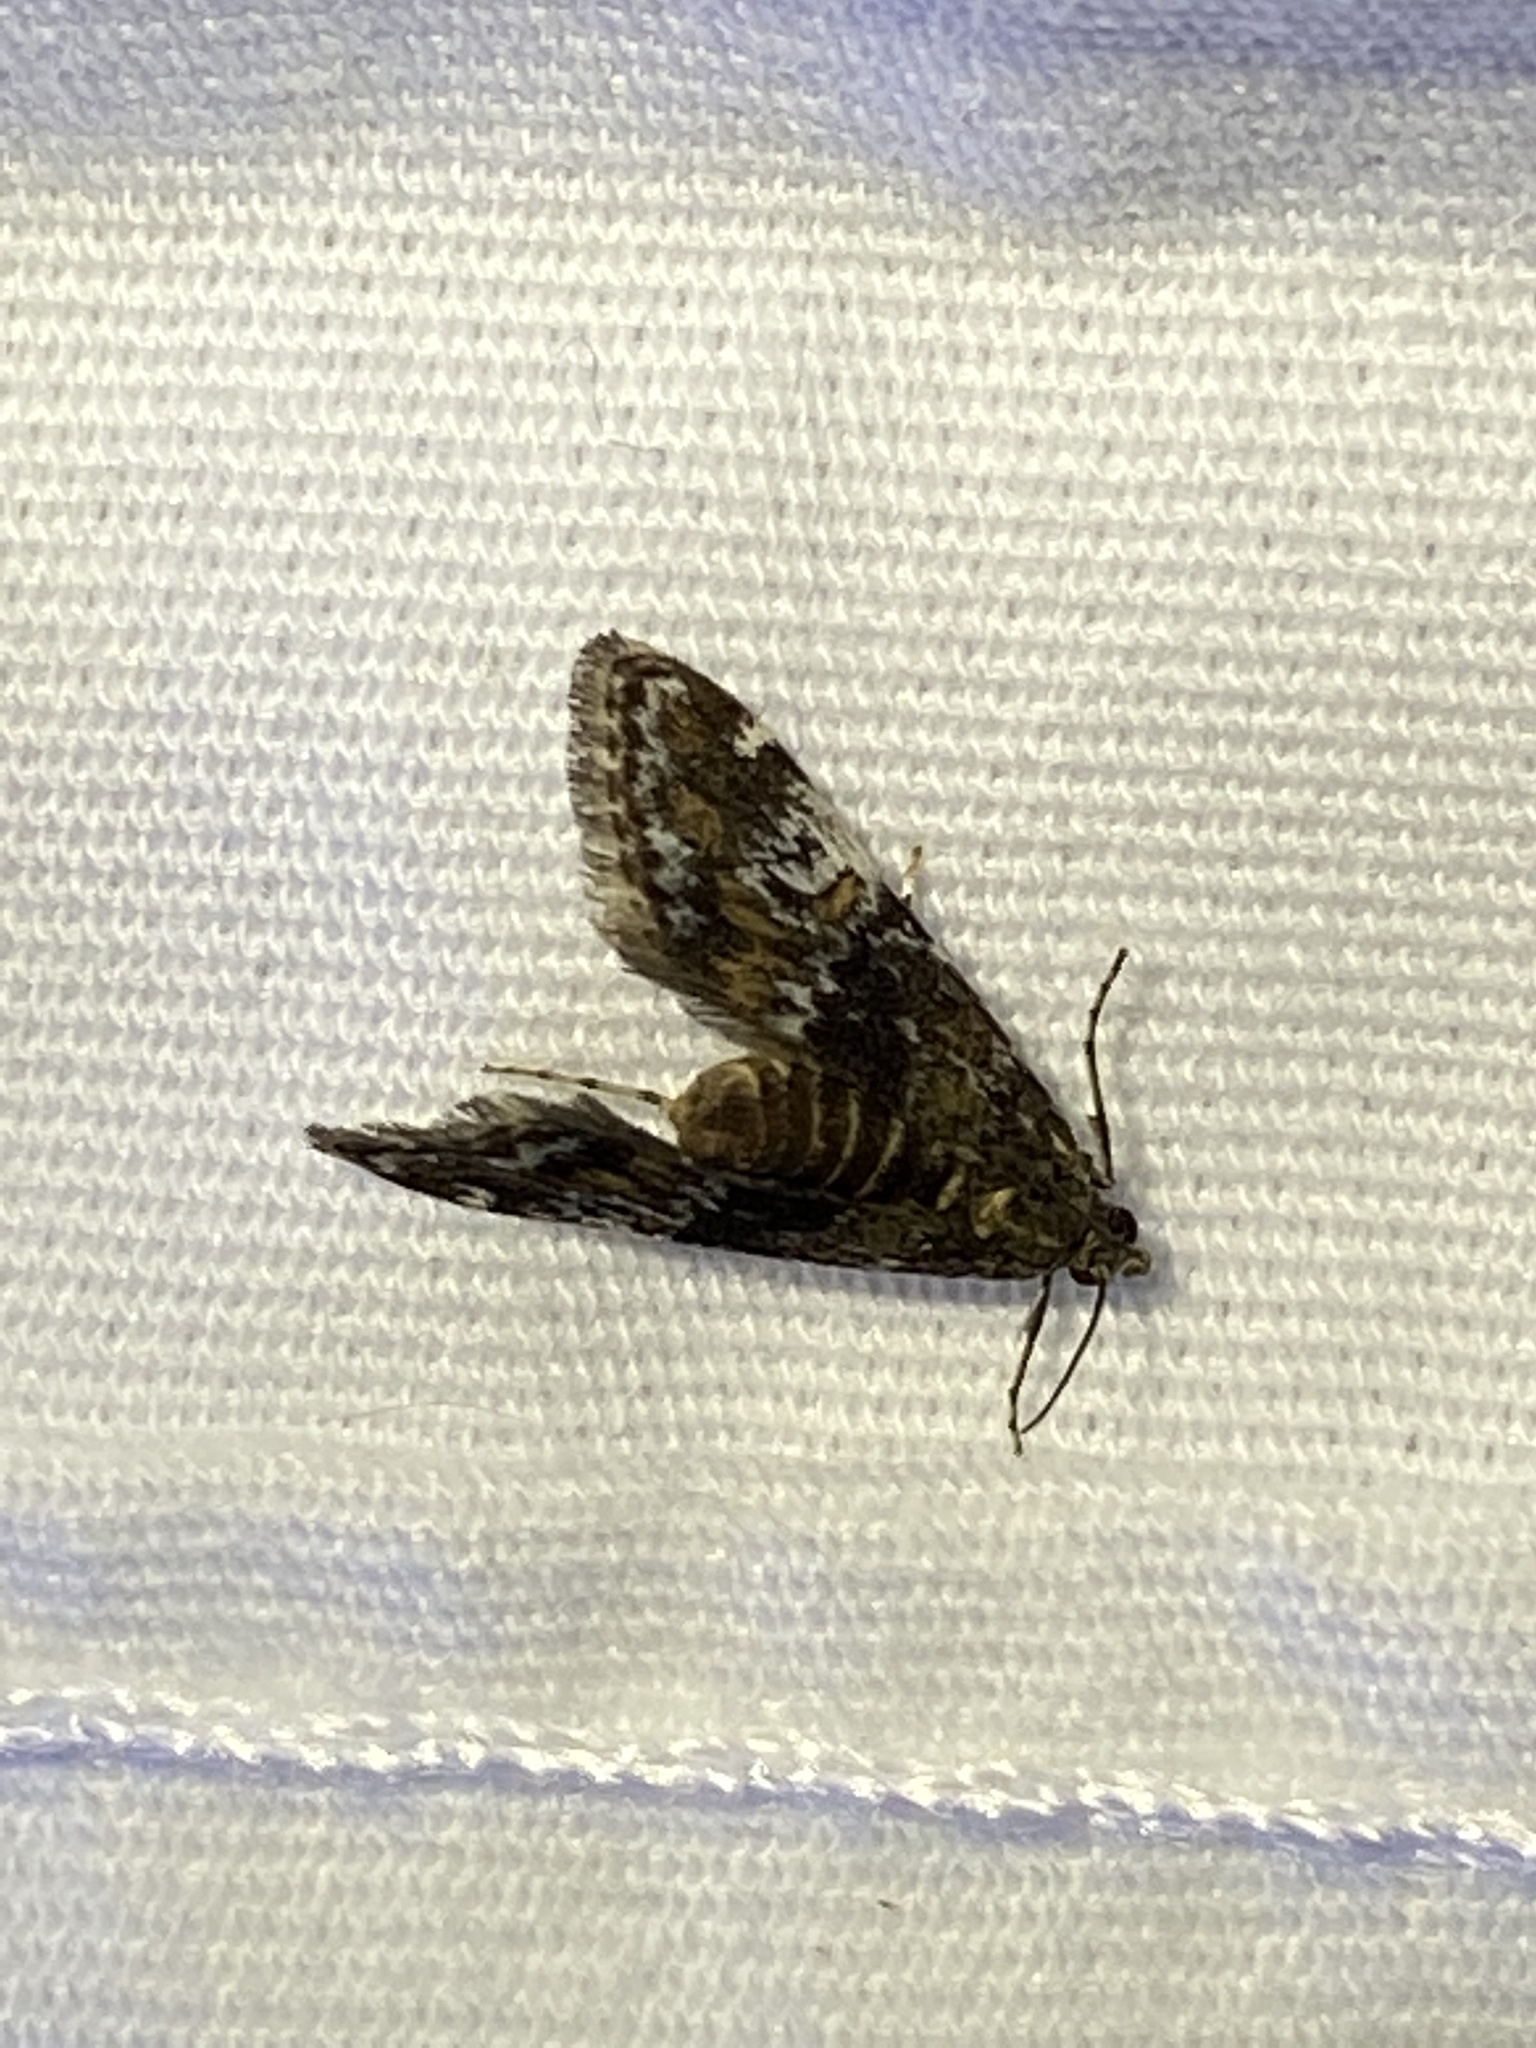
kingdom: Animalia
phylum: Arthropoda
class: Insecta
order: Lepidoptera
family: Crambidae
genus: Elophila
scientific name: Elophila obliteralis
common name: Waterlily leafcutter moth
